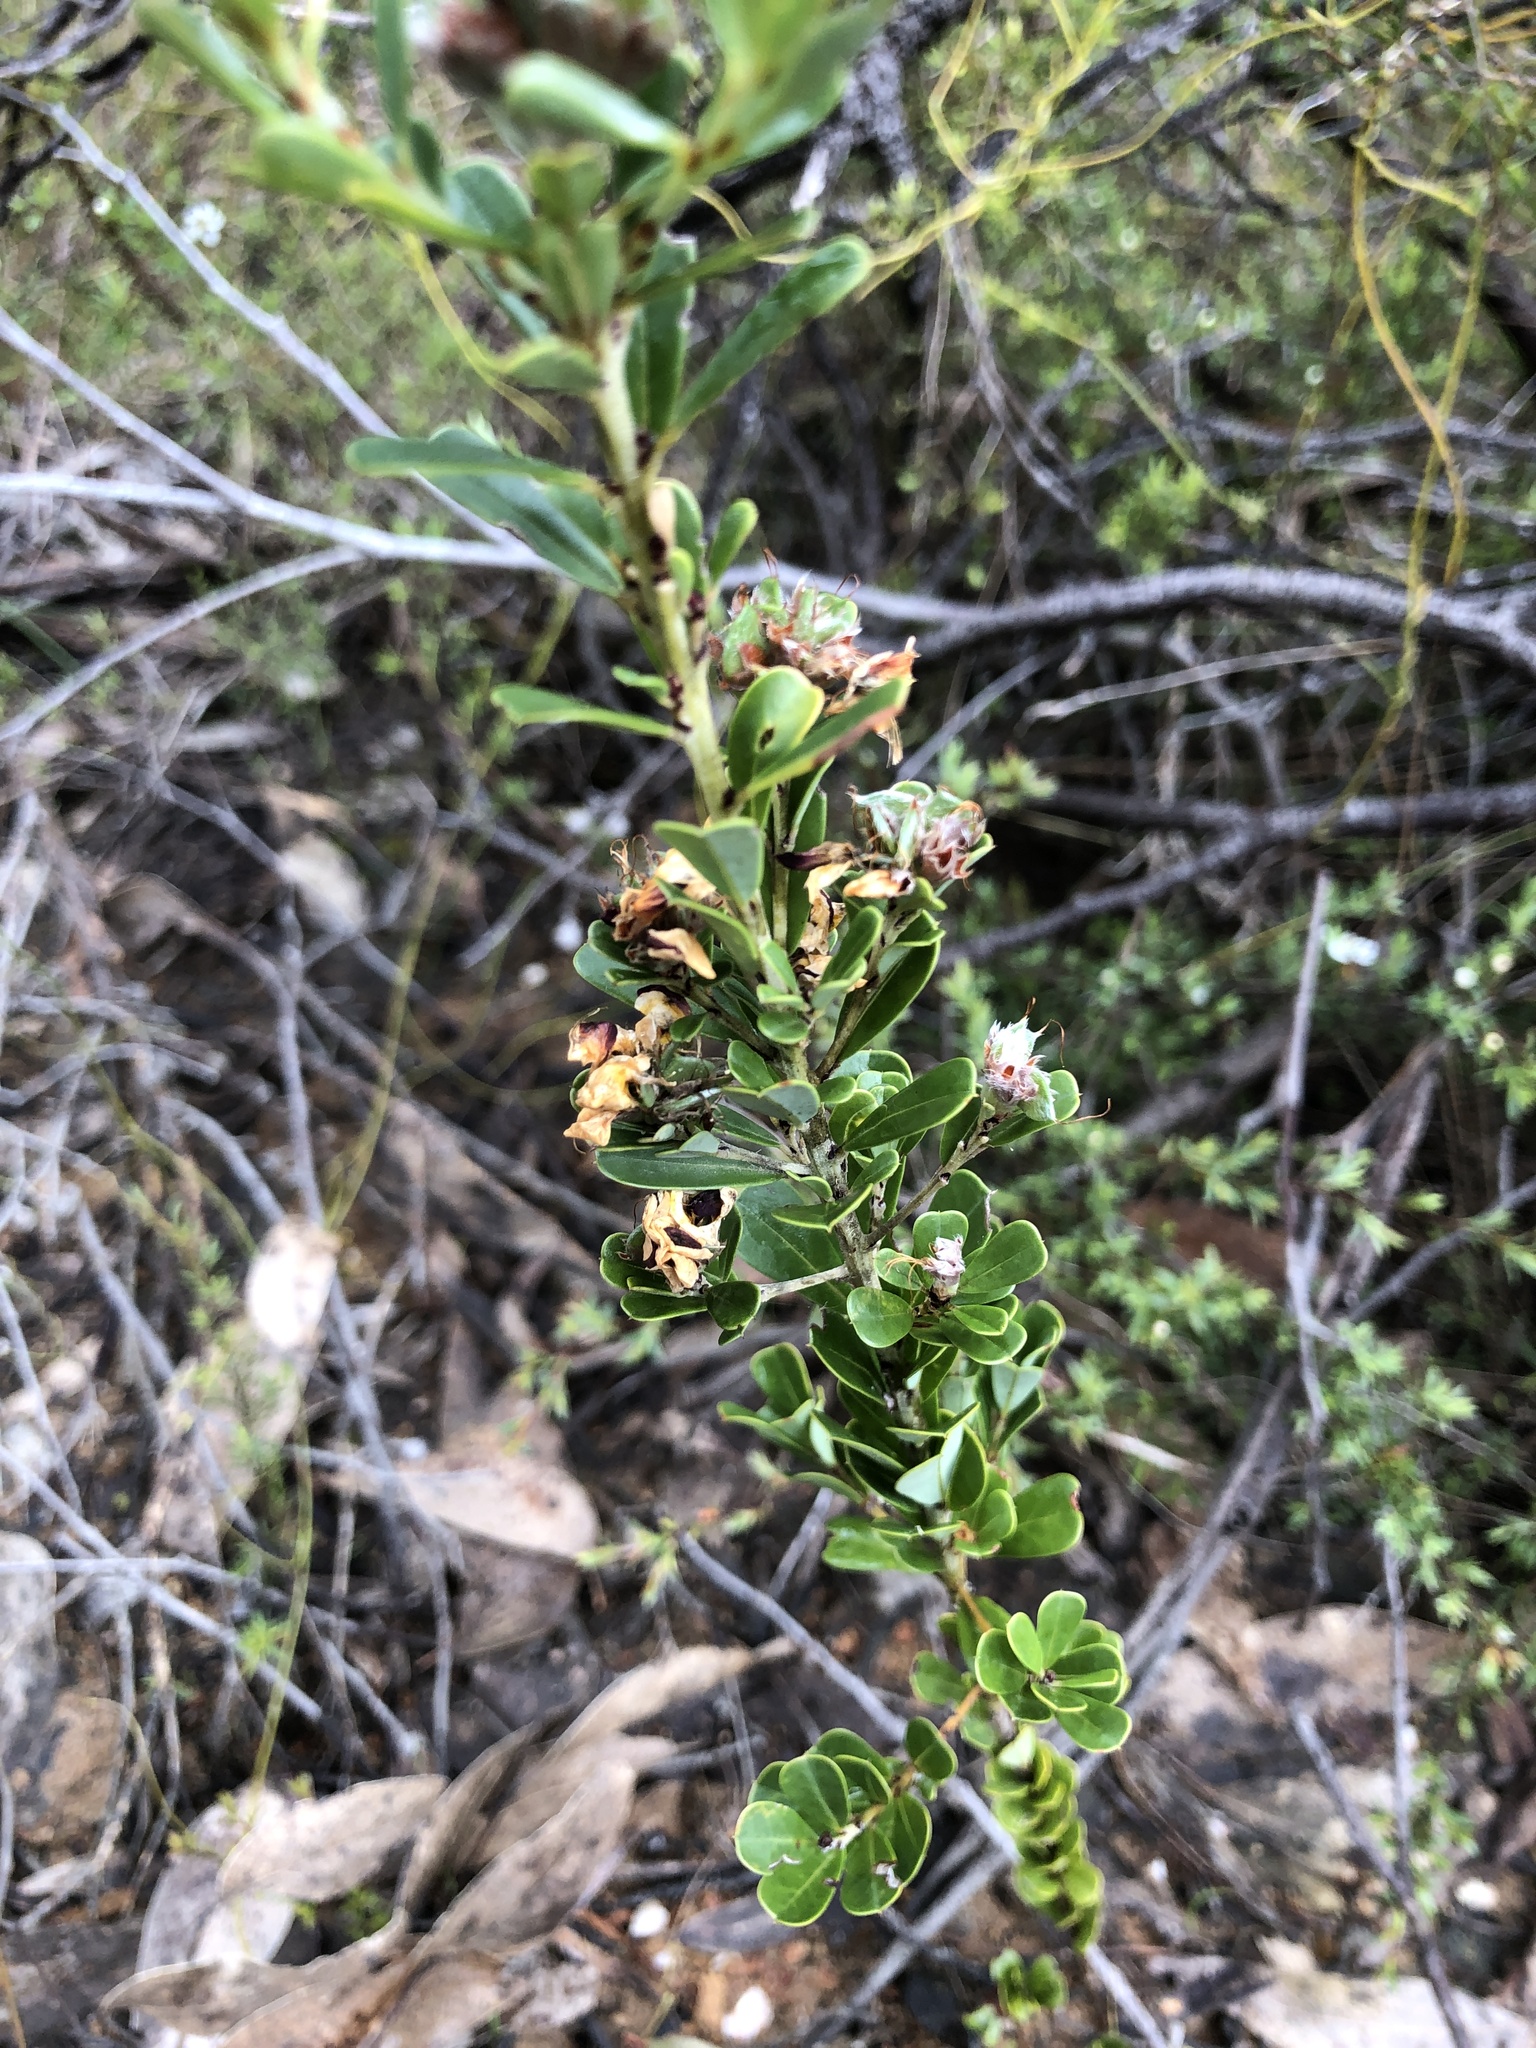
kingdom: Plantae
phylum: Tracheophyta
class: Magnoliopsida
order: Fabales
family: Fabaceae
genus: Pultenaea
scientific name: Pultenaea daphnoides
